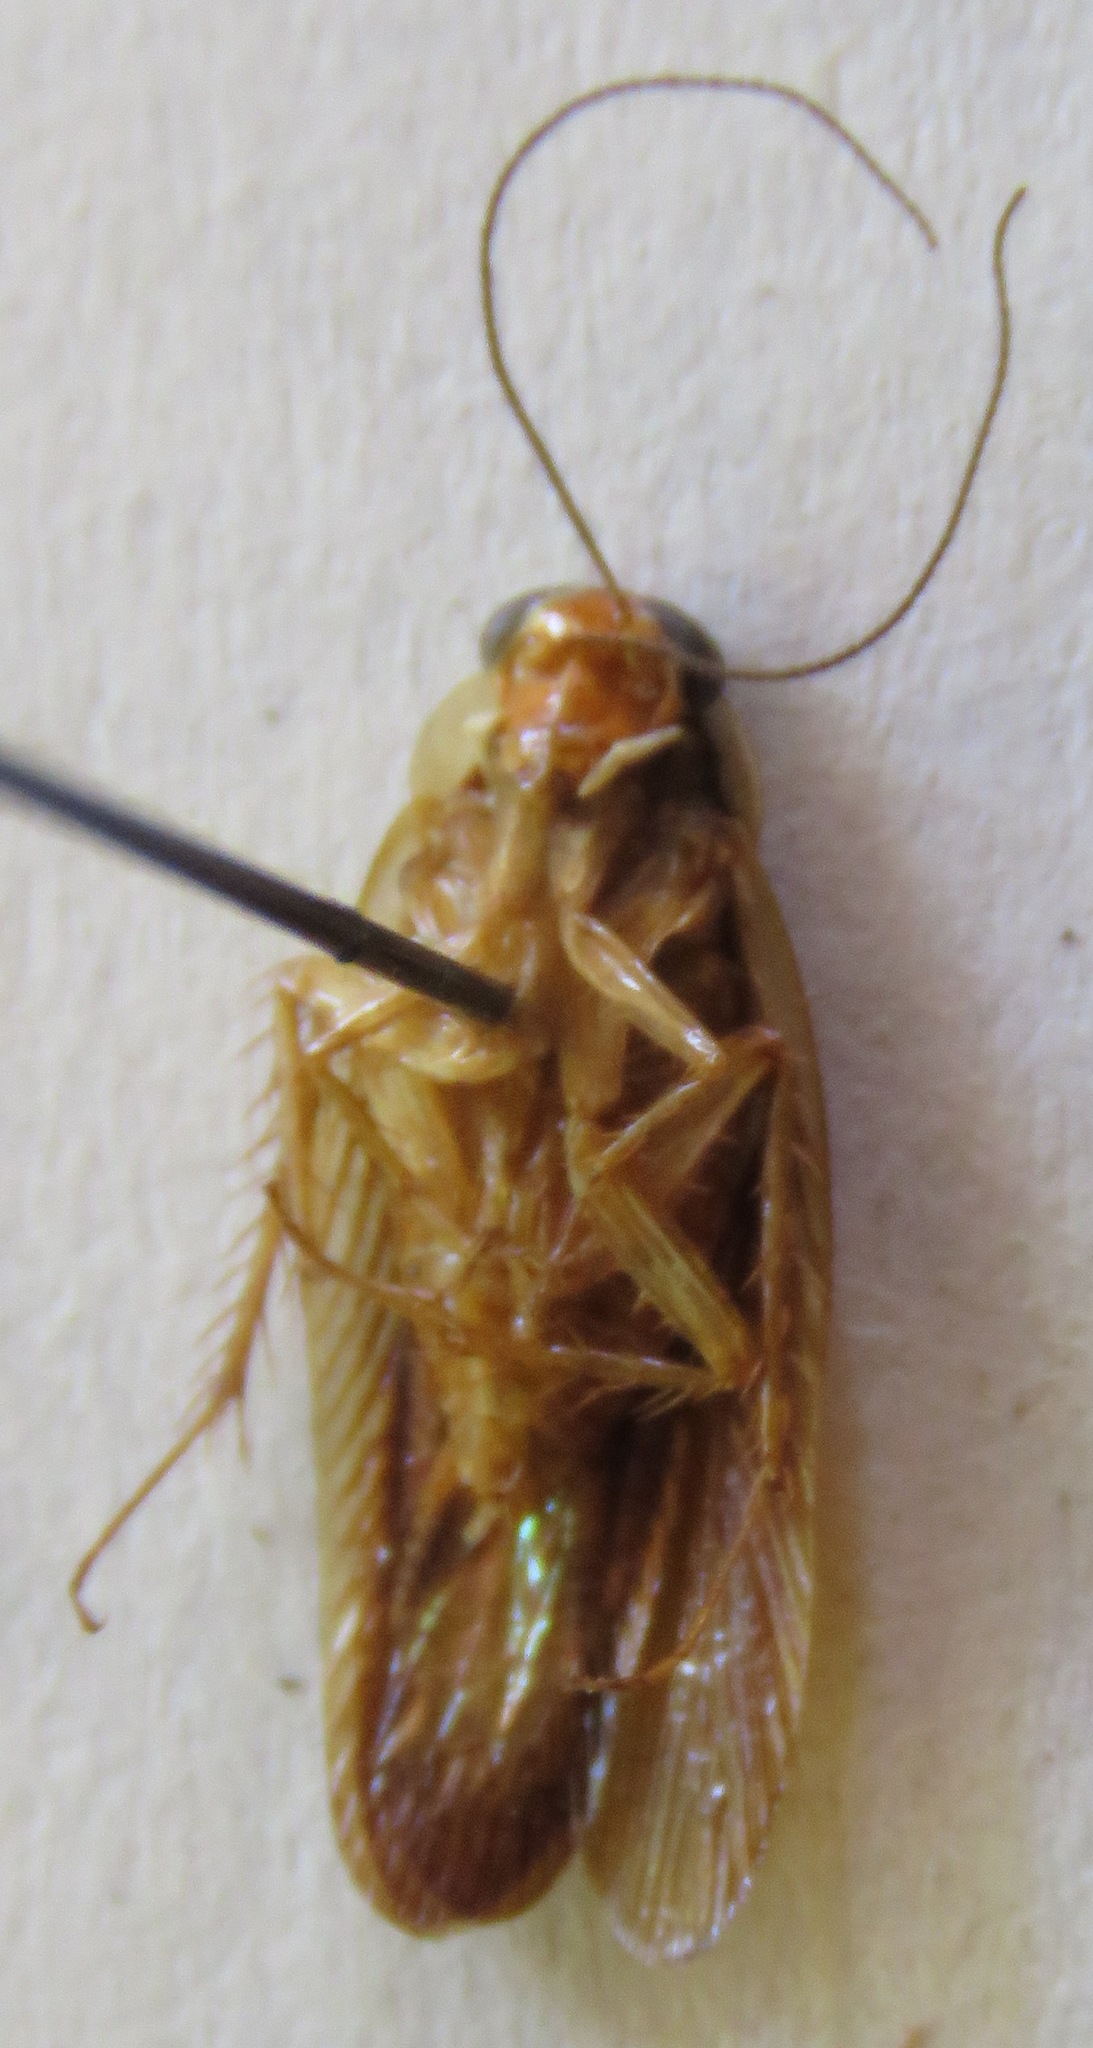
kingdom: Animalia
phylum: Arthropoda
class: Insecta
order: Blattodea
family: Ectobiidae
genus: Euphyllodromia
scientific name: Euphyllodromia angustata
